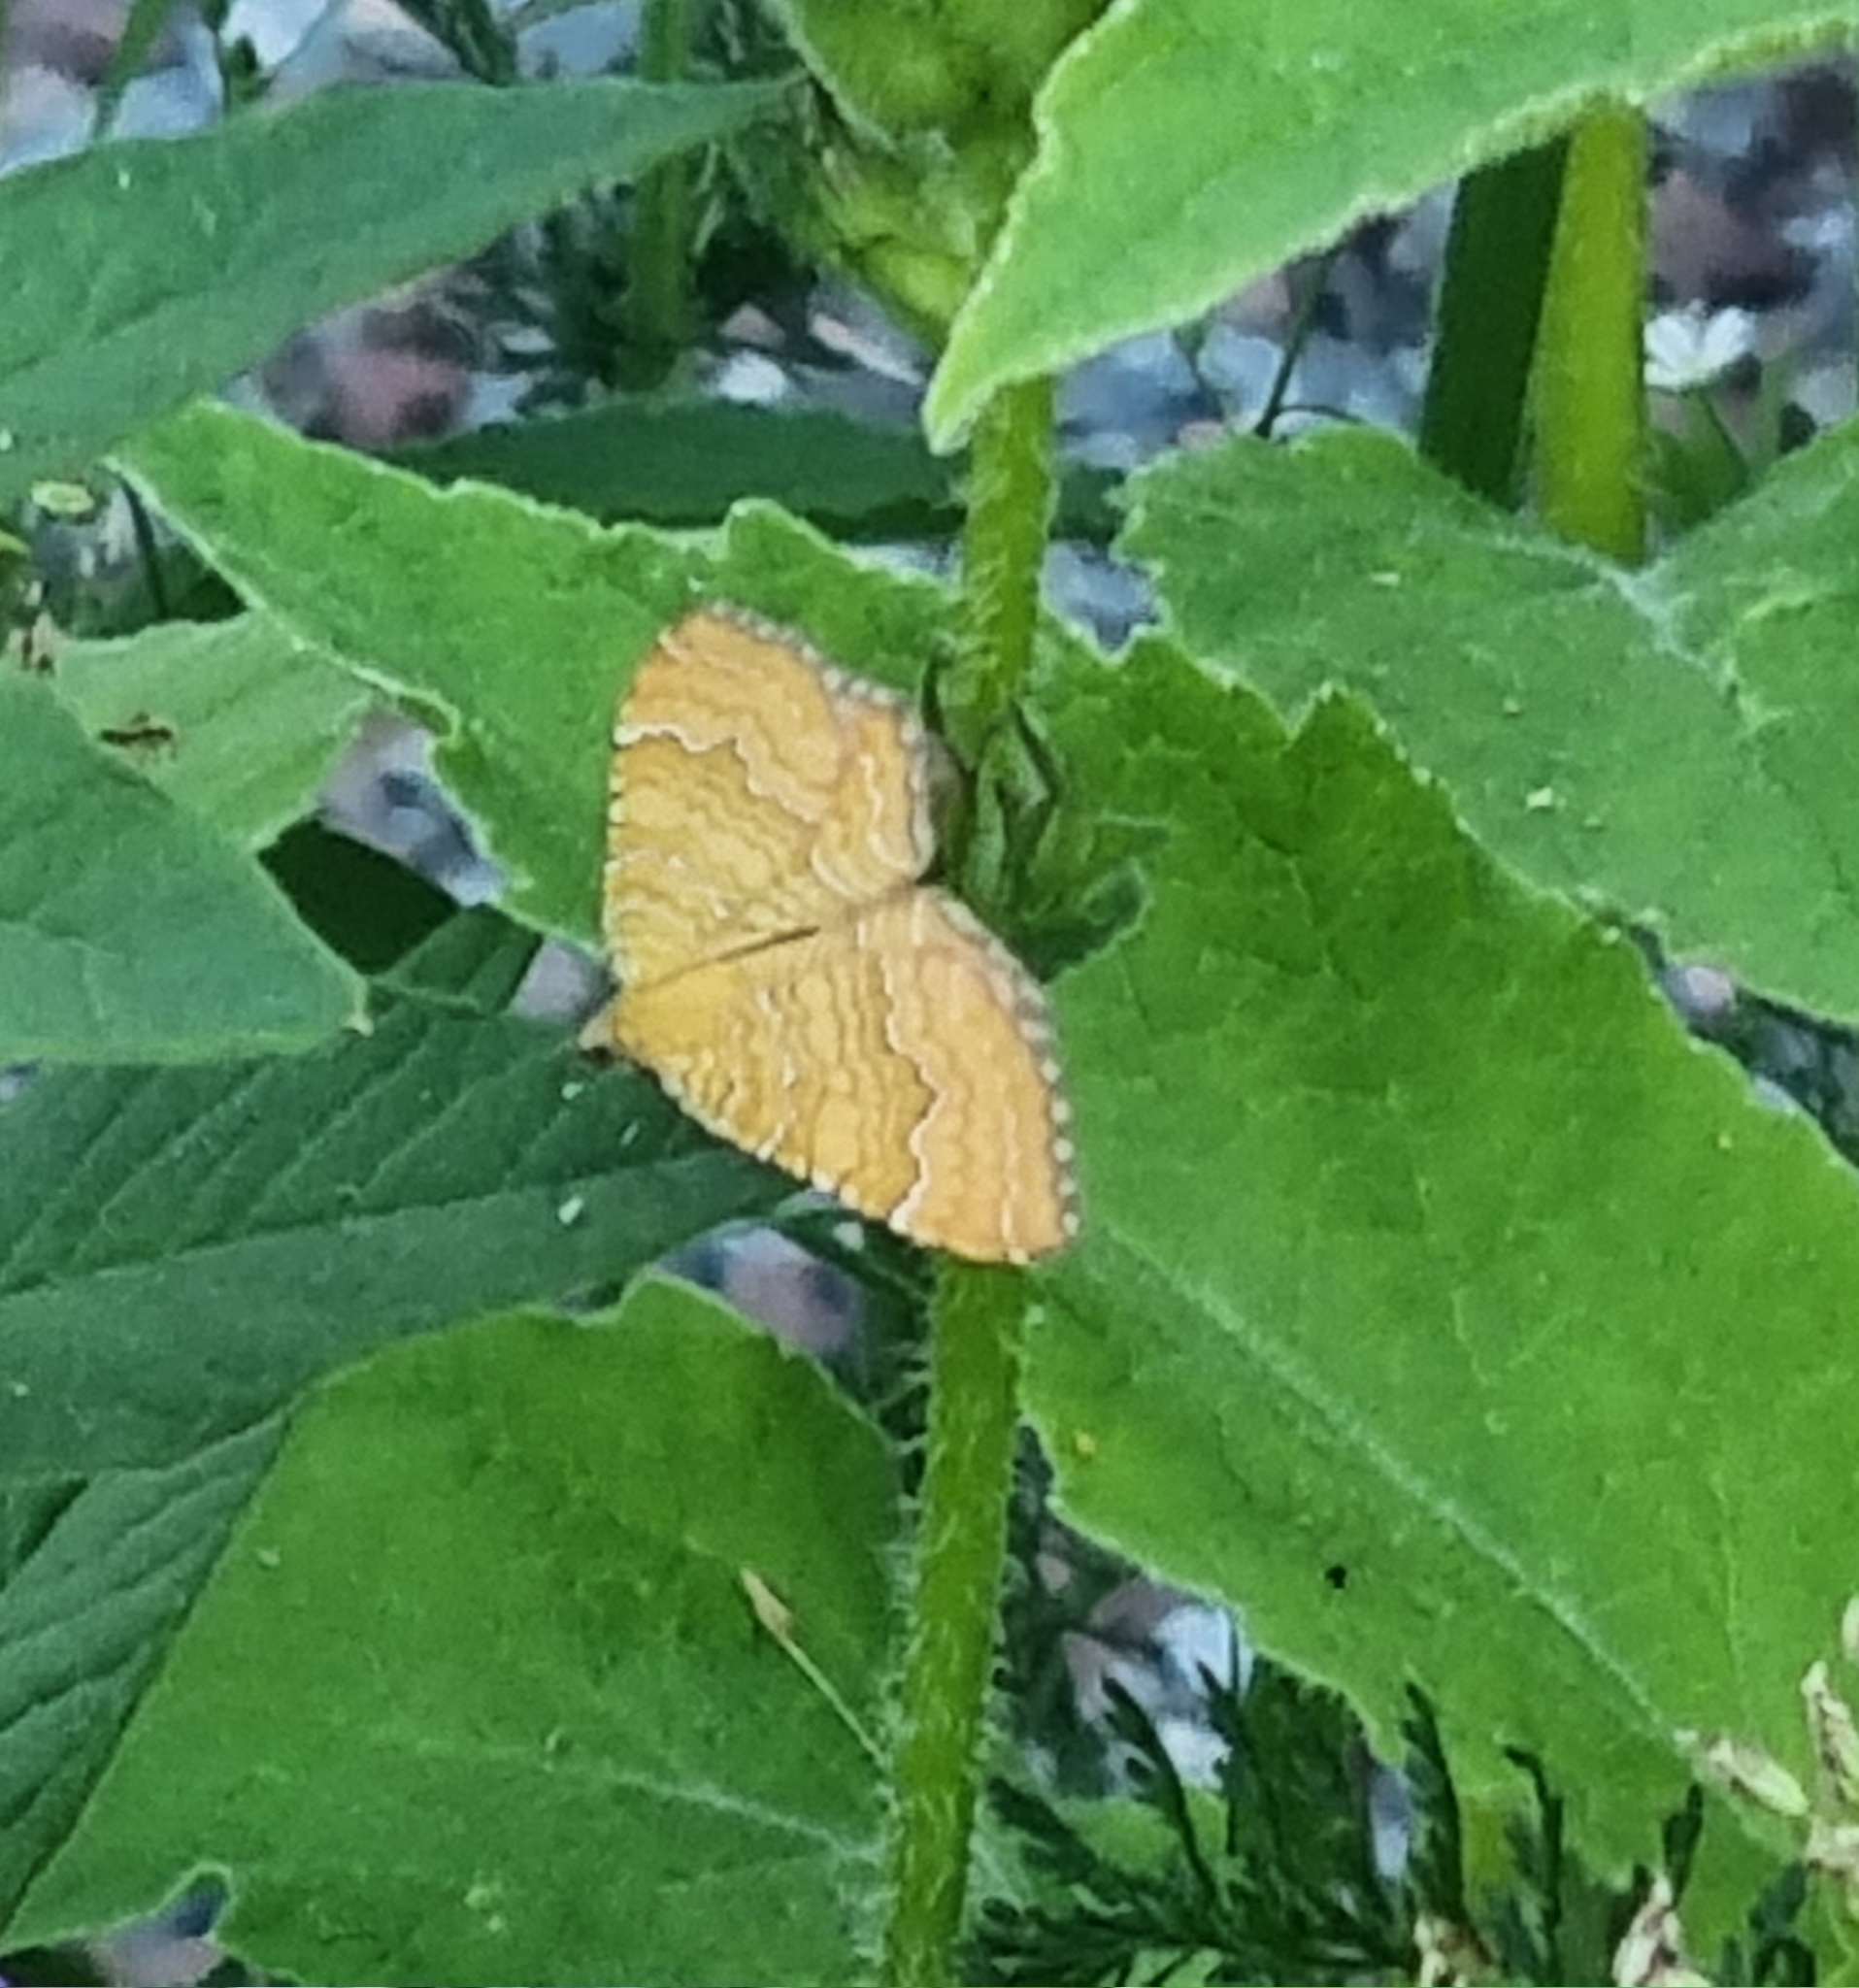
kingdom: Animalia
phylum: Arthropoda
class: Insecta
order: Lepidoptera
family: Geometridae
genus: Camptogramma
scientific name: Camptogramma bilineata
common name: Yellow shell
